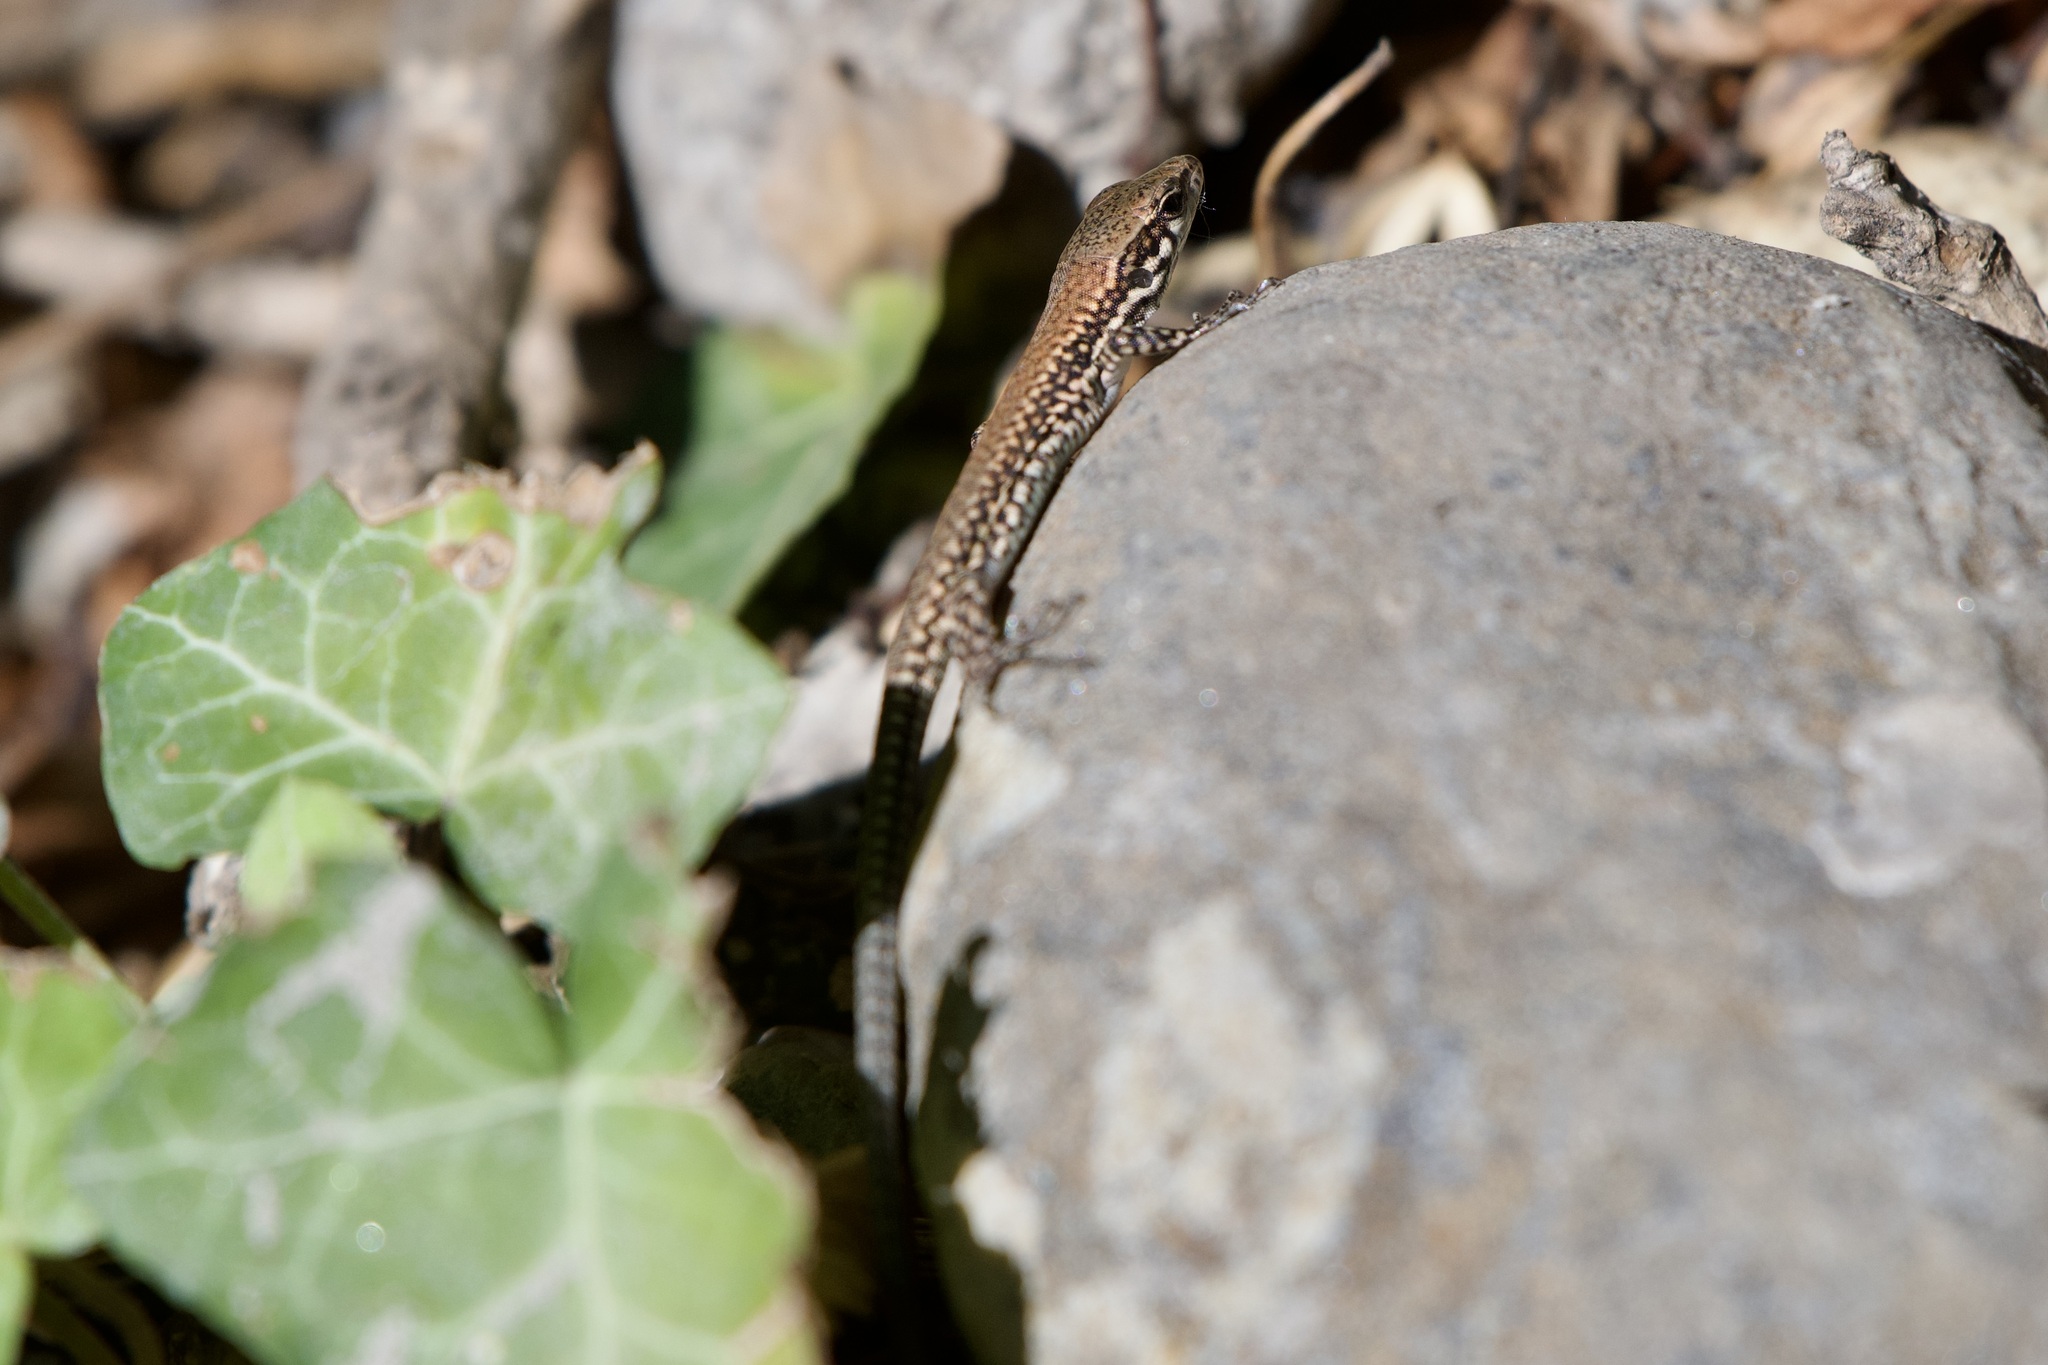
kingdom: Animalia
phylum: Chordata
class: Squamata
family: Lacertidae
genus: Podarcis
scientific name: Podarcis muralis
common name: Common wall lizard
